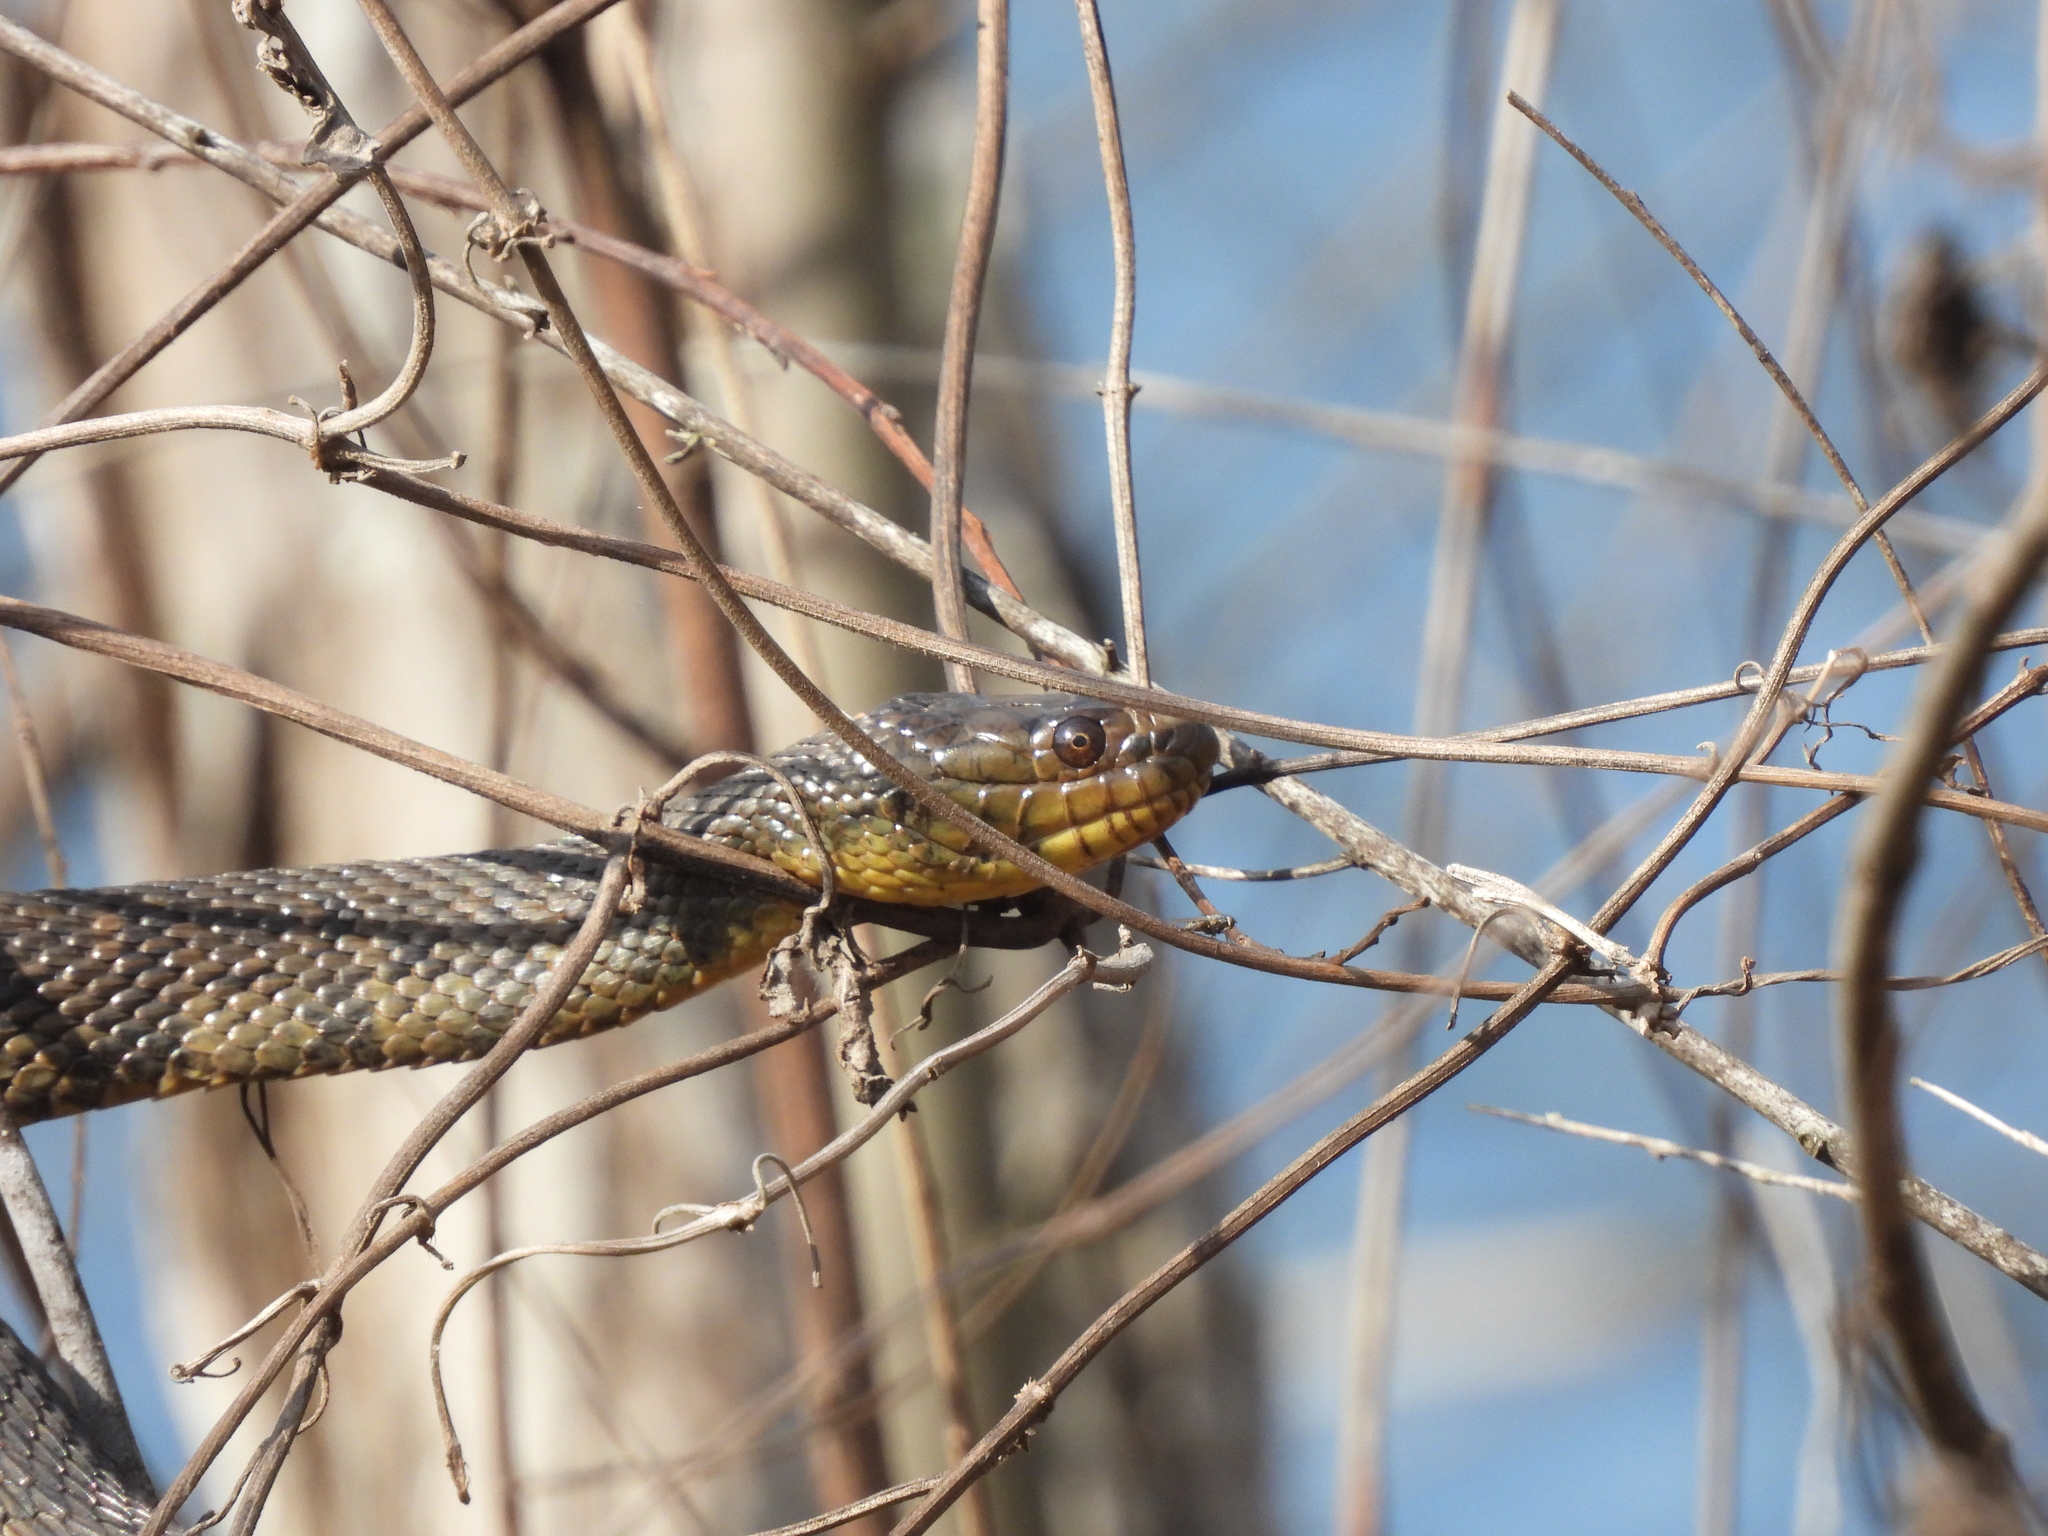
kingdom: Animalia
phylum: Chordata
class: Squamata
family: Colubridae
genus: Nerodia
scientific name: Nerodia cyclopion
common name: Mississippi green water snake
